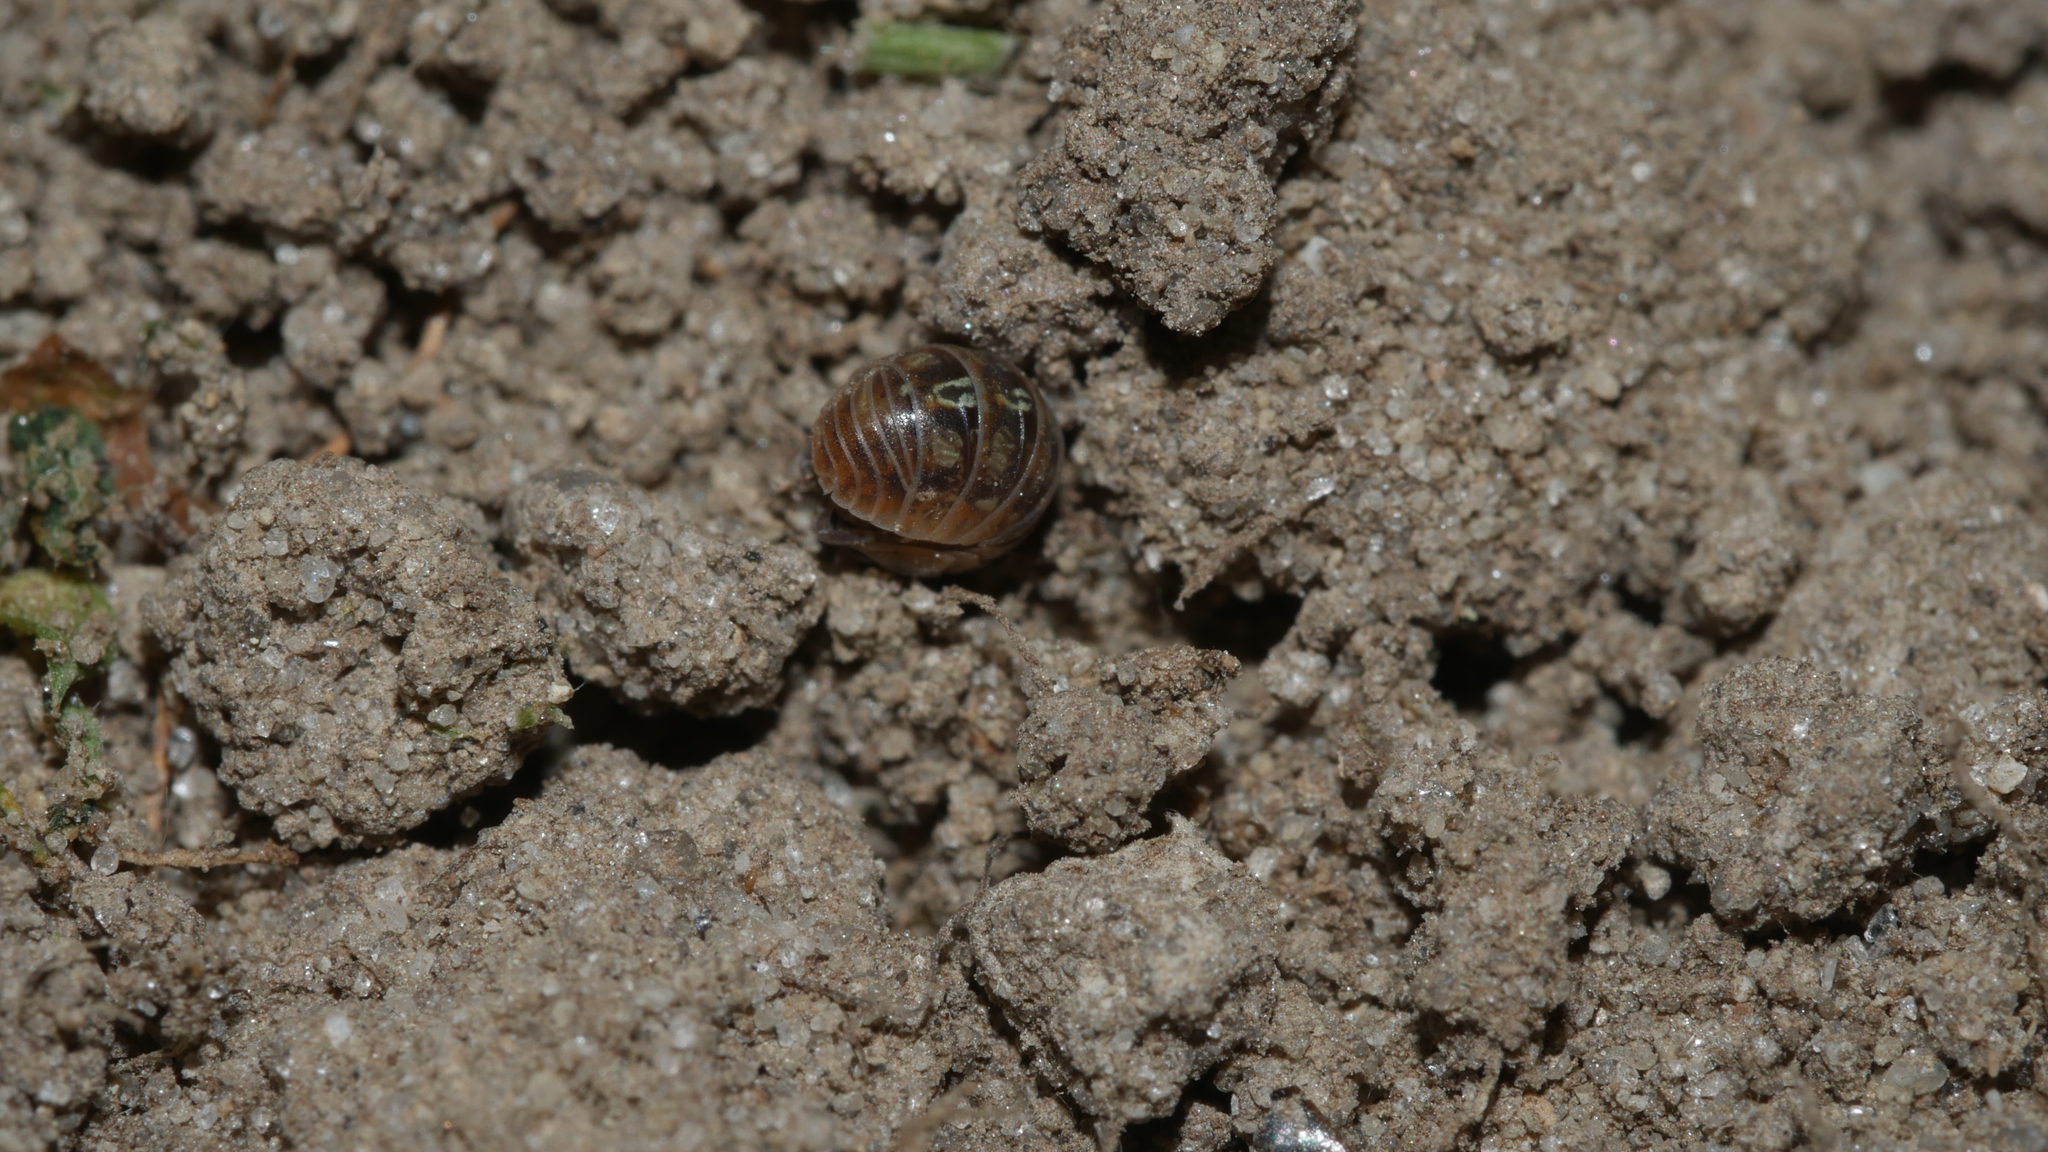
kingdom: Animalia
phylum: Arthropoda
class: Malacostraca
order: Isopoda
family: Armadillidiidae
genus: Armadillidium
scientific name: Armadillidium vulgare
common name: Common pill woodlouse
